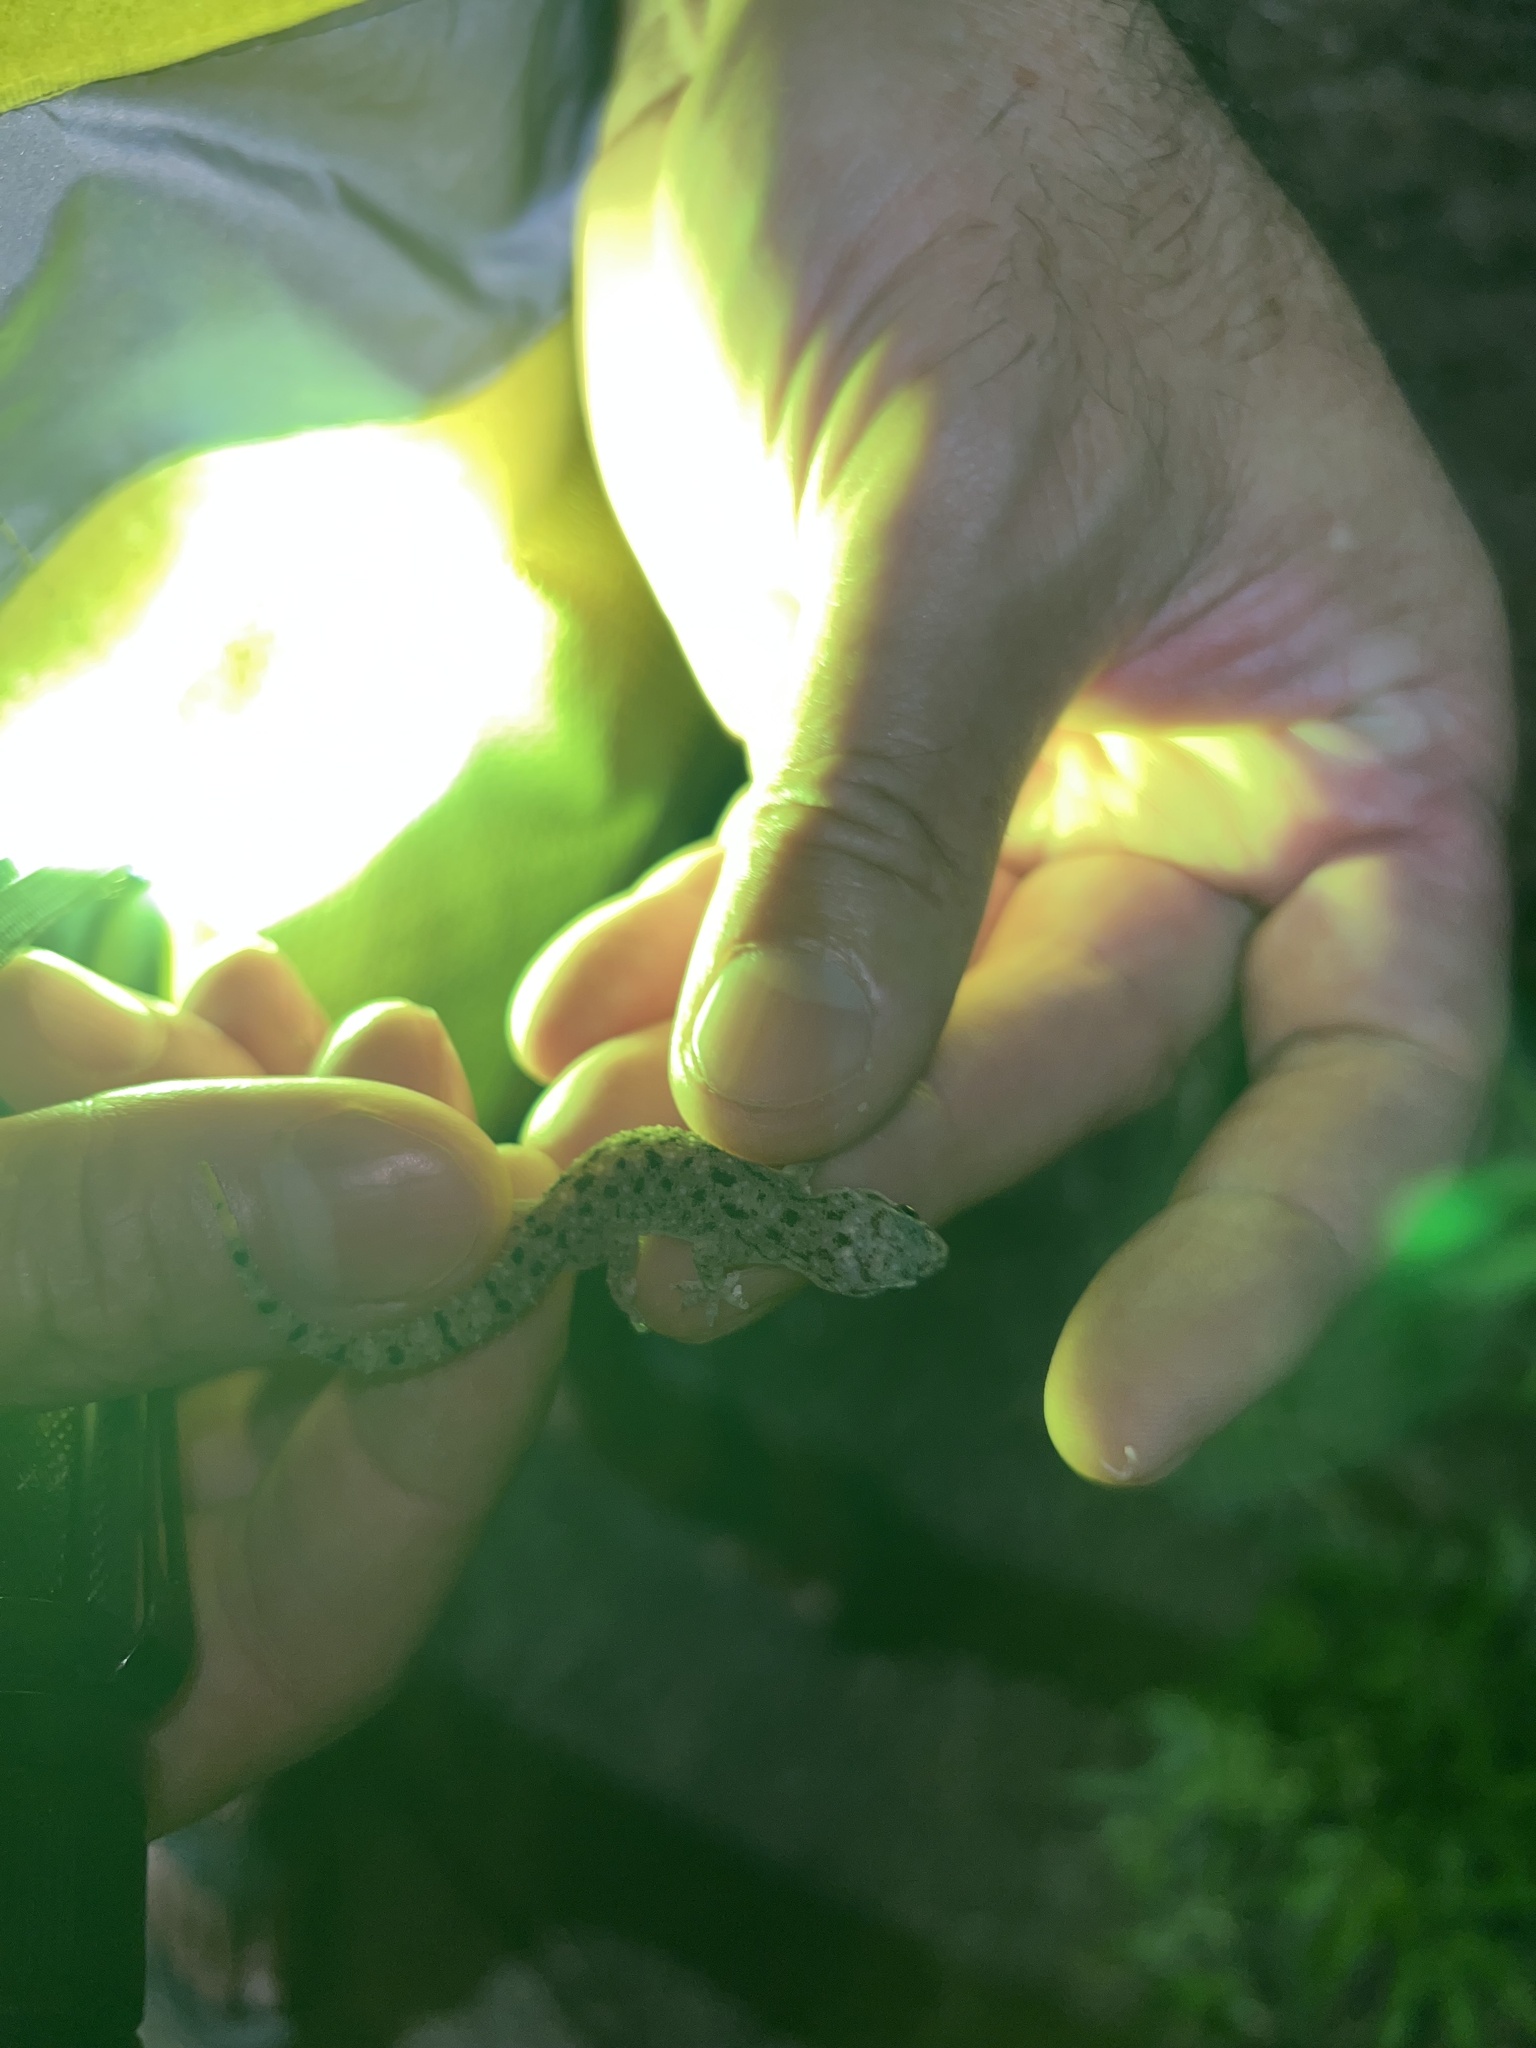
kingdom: Animalia
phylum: Chordata
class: Squamata
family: Gekkonidae
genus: Hemidactylus
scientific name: Hemidactylus parvimaculatus
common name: Spotted house gecko
